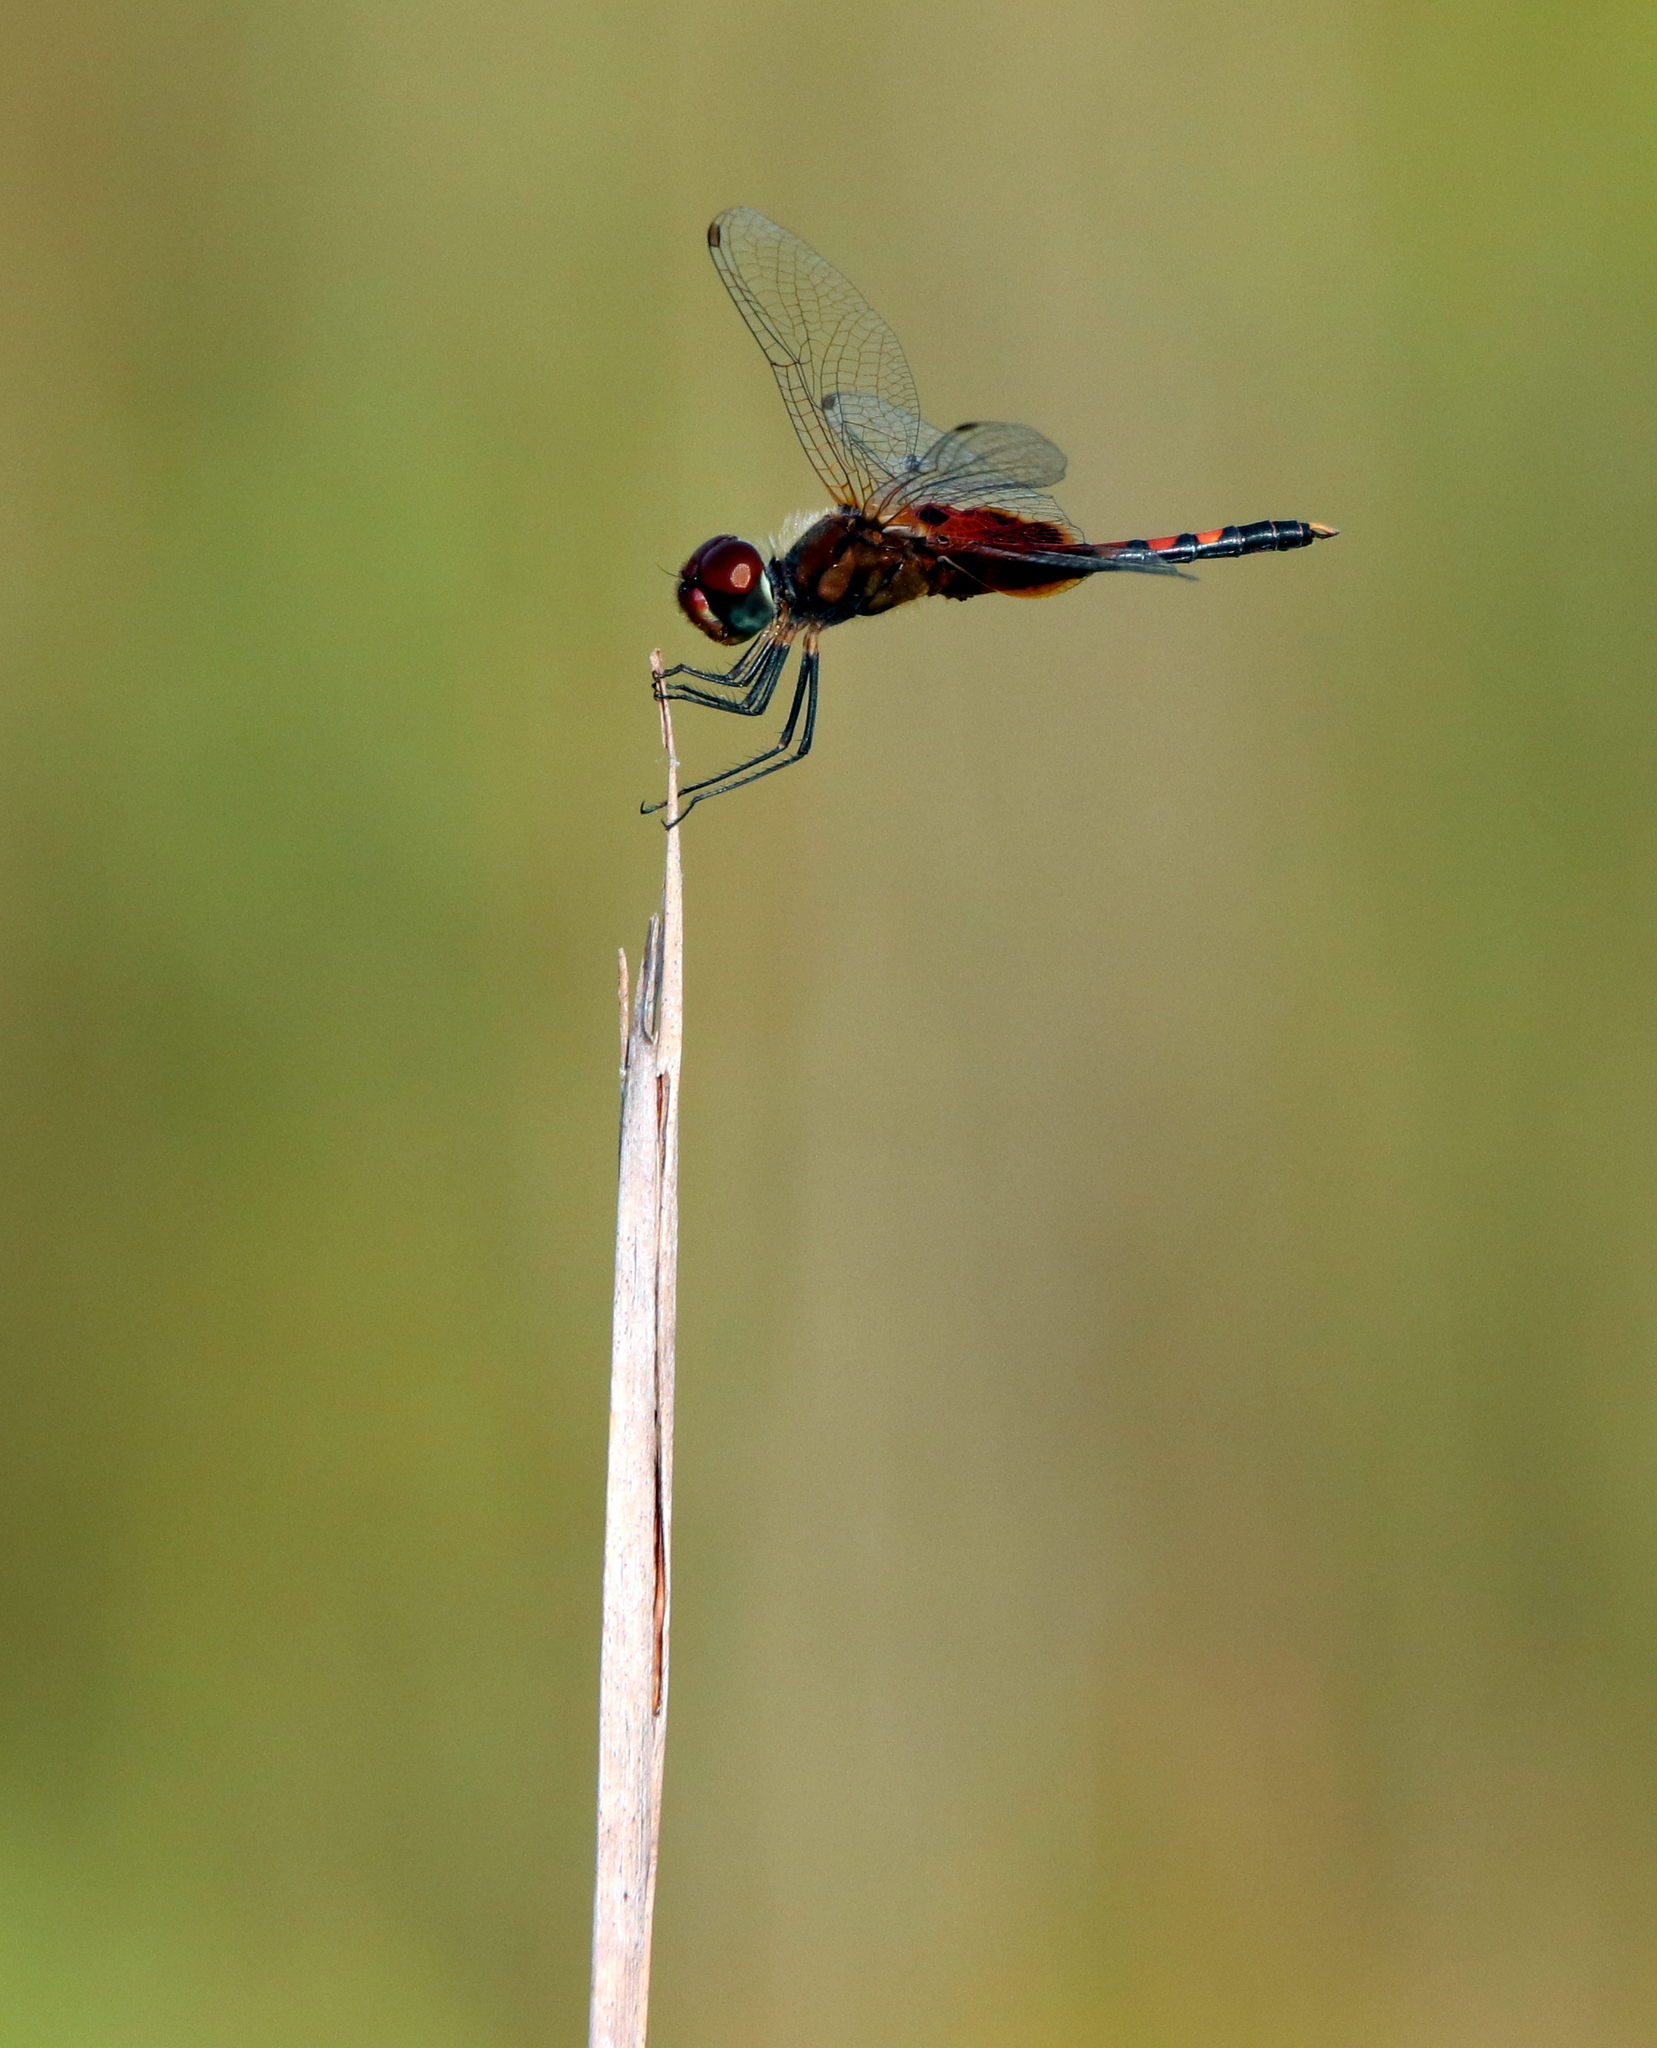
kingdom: Animalia
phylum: Arthropoda
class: Insecta
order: Odonata
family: Libellulidae
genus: Celithemis
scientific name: Celithemis amanda
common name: Amanda's pennant
